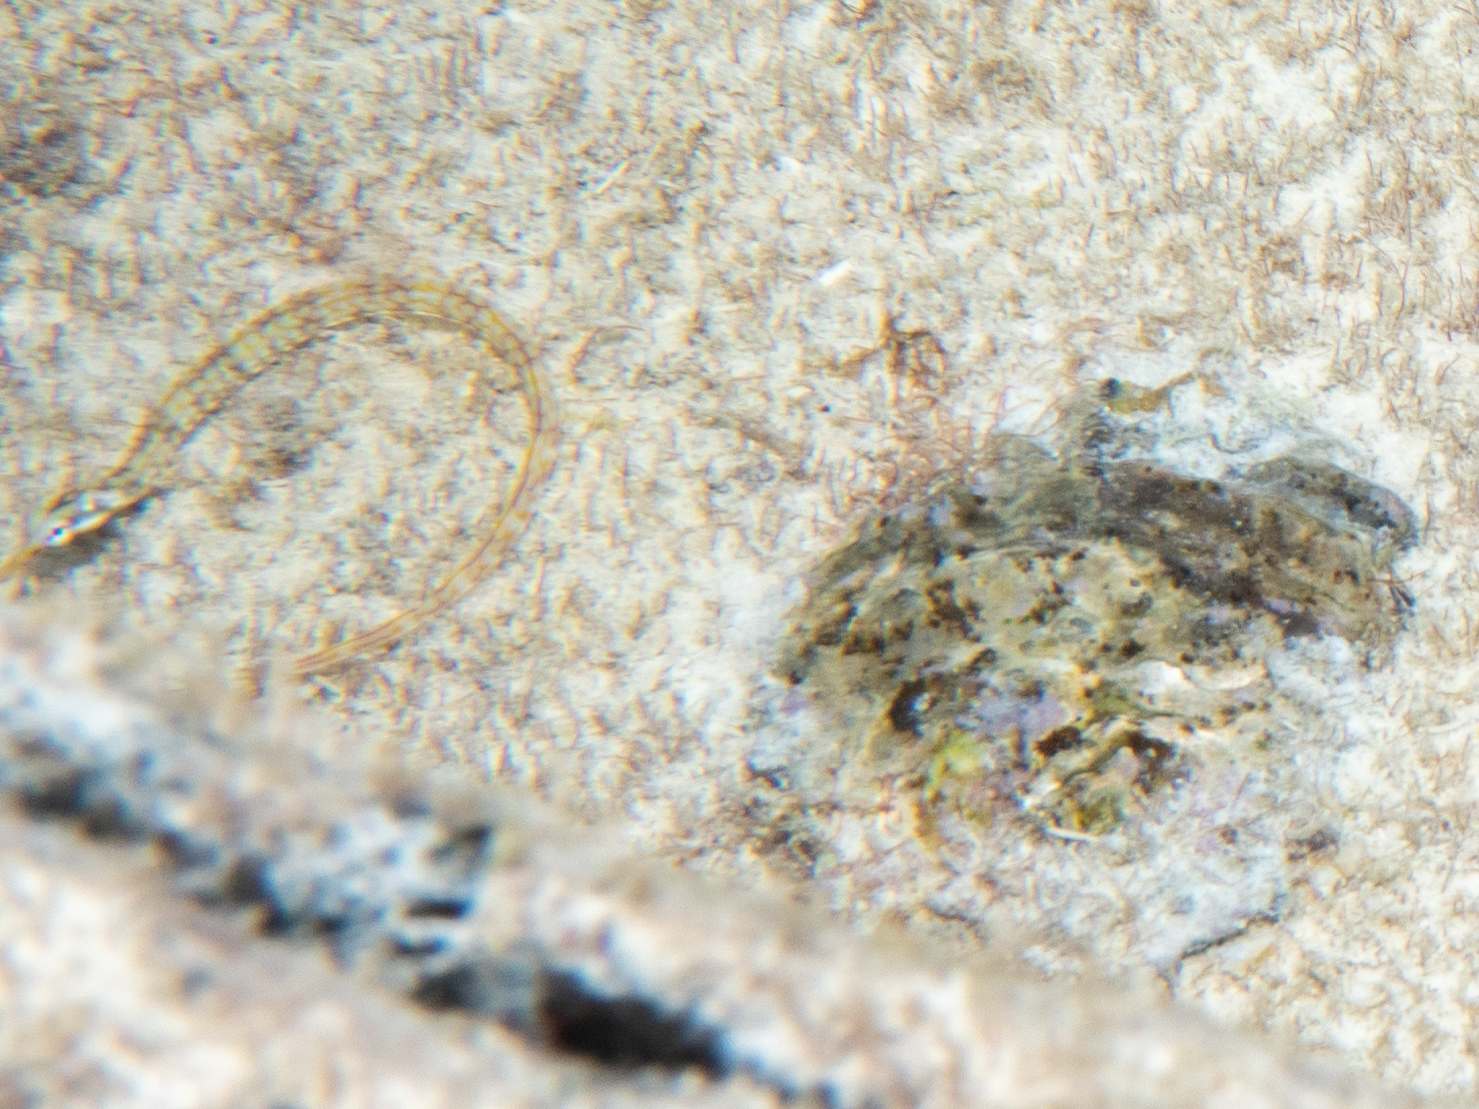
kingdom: Animalia
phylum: Chordata
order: Syngnathiformes
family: Syngnathidae
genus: Corythoichthys
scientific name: Corythoichthys flavofasciatus
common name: Banded pipefish
